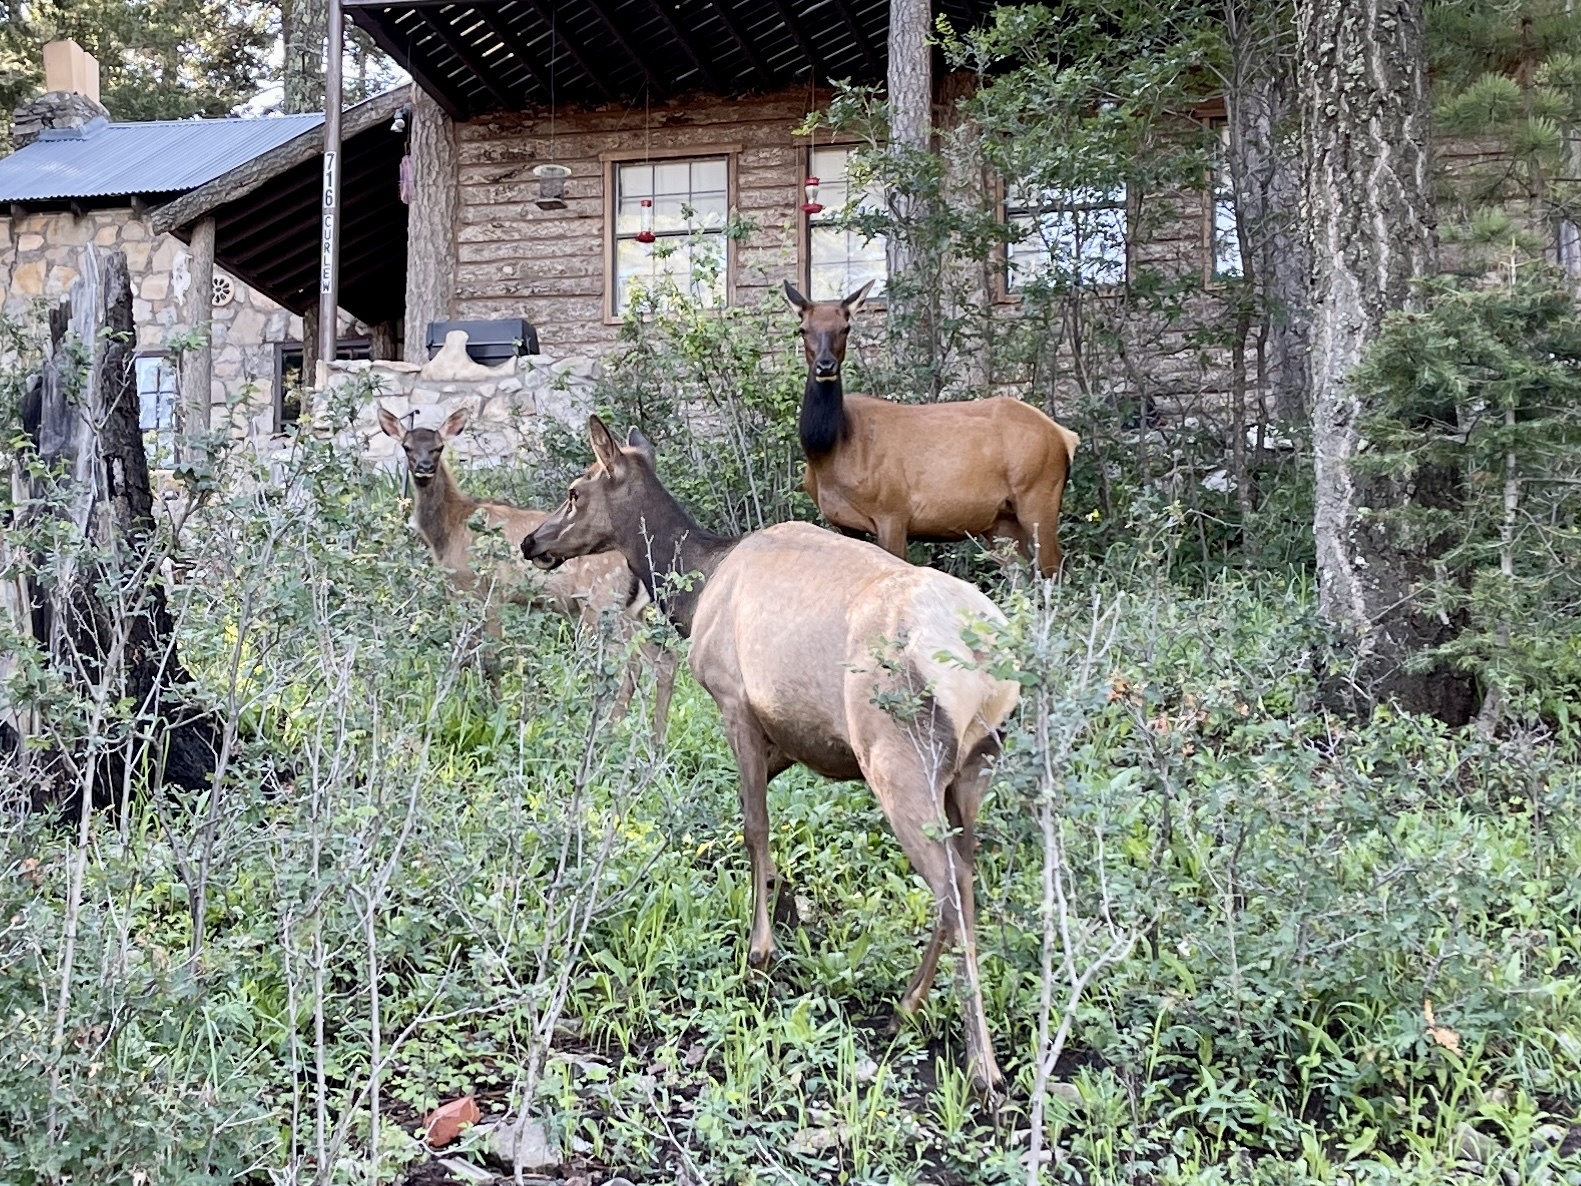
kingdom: Animalia
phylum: Chordata
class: Mammalia
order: Artiodactyla
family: Cervidae
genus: Cervus
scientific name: Cervus elaphus
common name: Red deer
